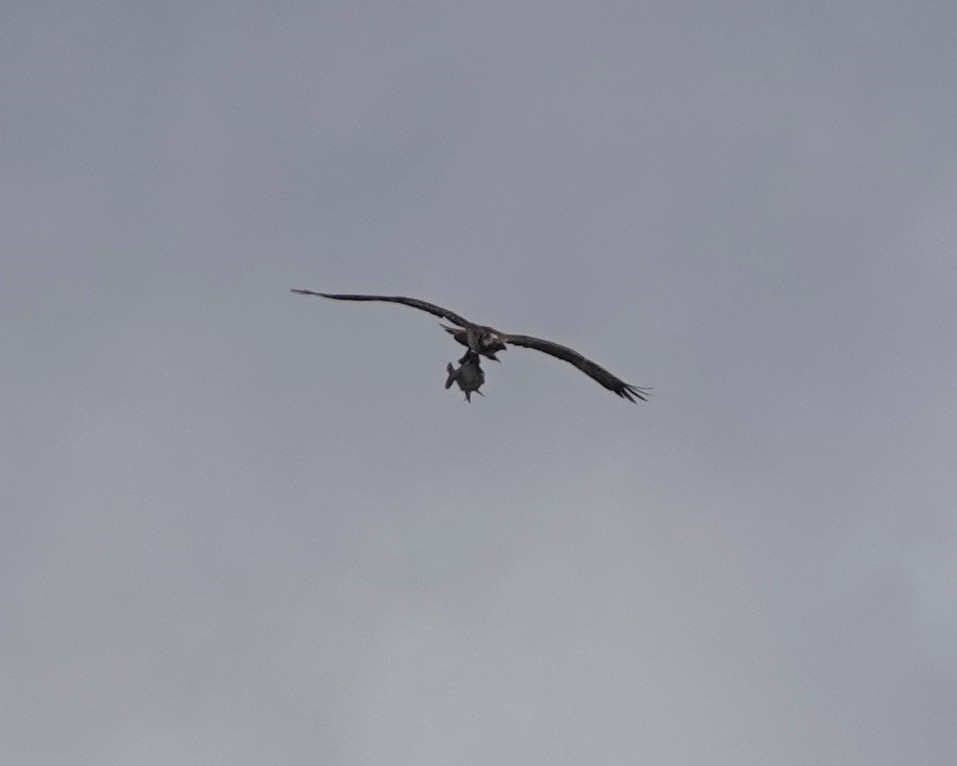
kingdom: Animalia
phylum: Chordata
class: Aves
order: Accipitriformes
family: Pandionidae
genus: Pandion
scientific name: Pandion haliaetus
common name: Osprey
